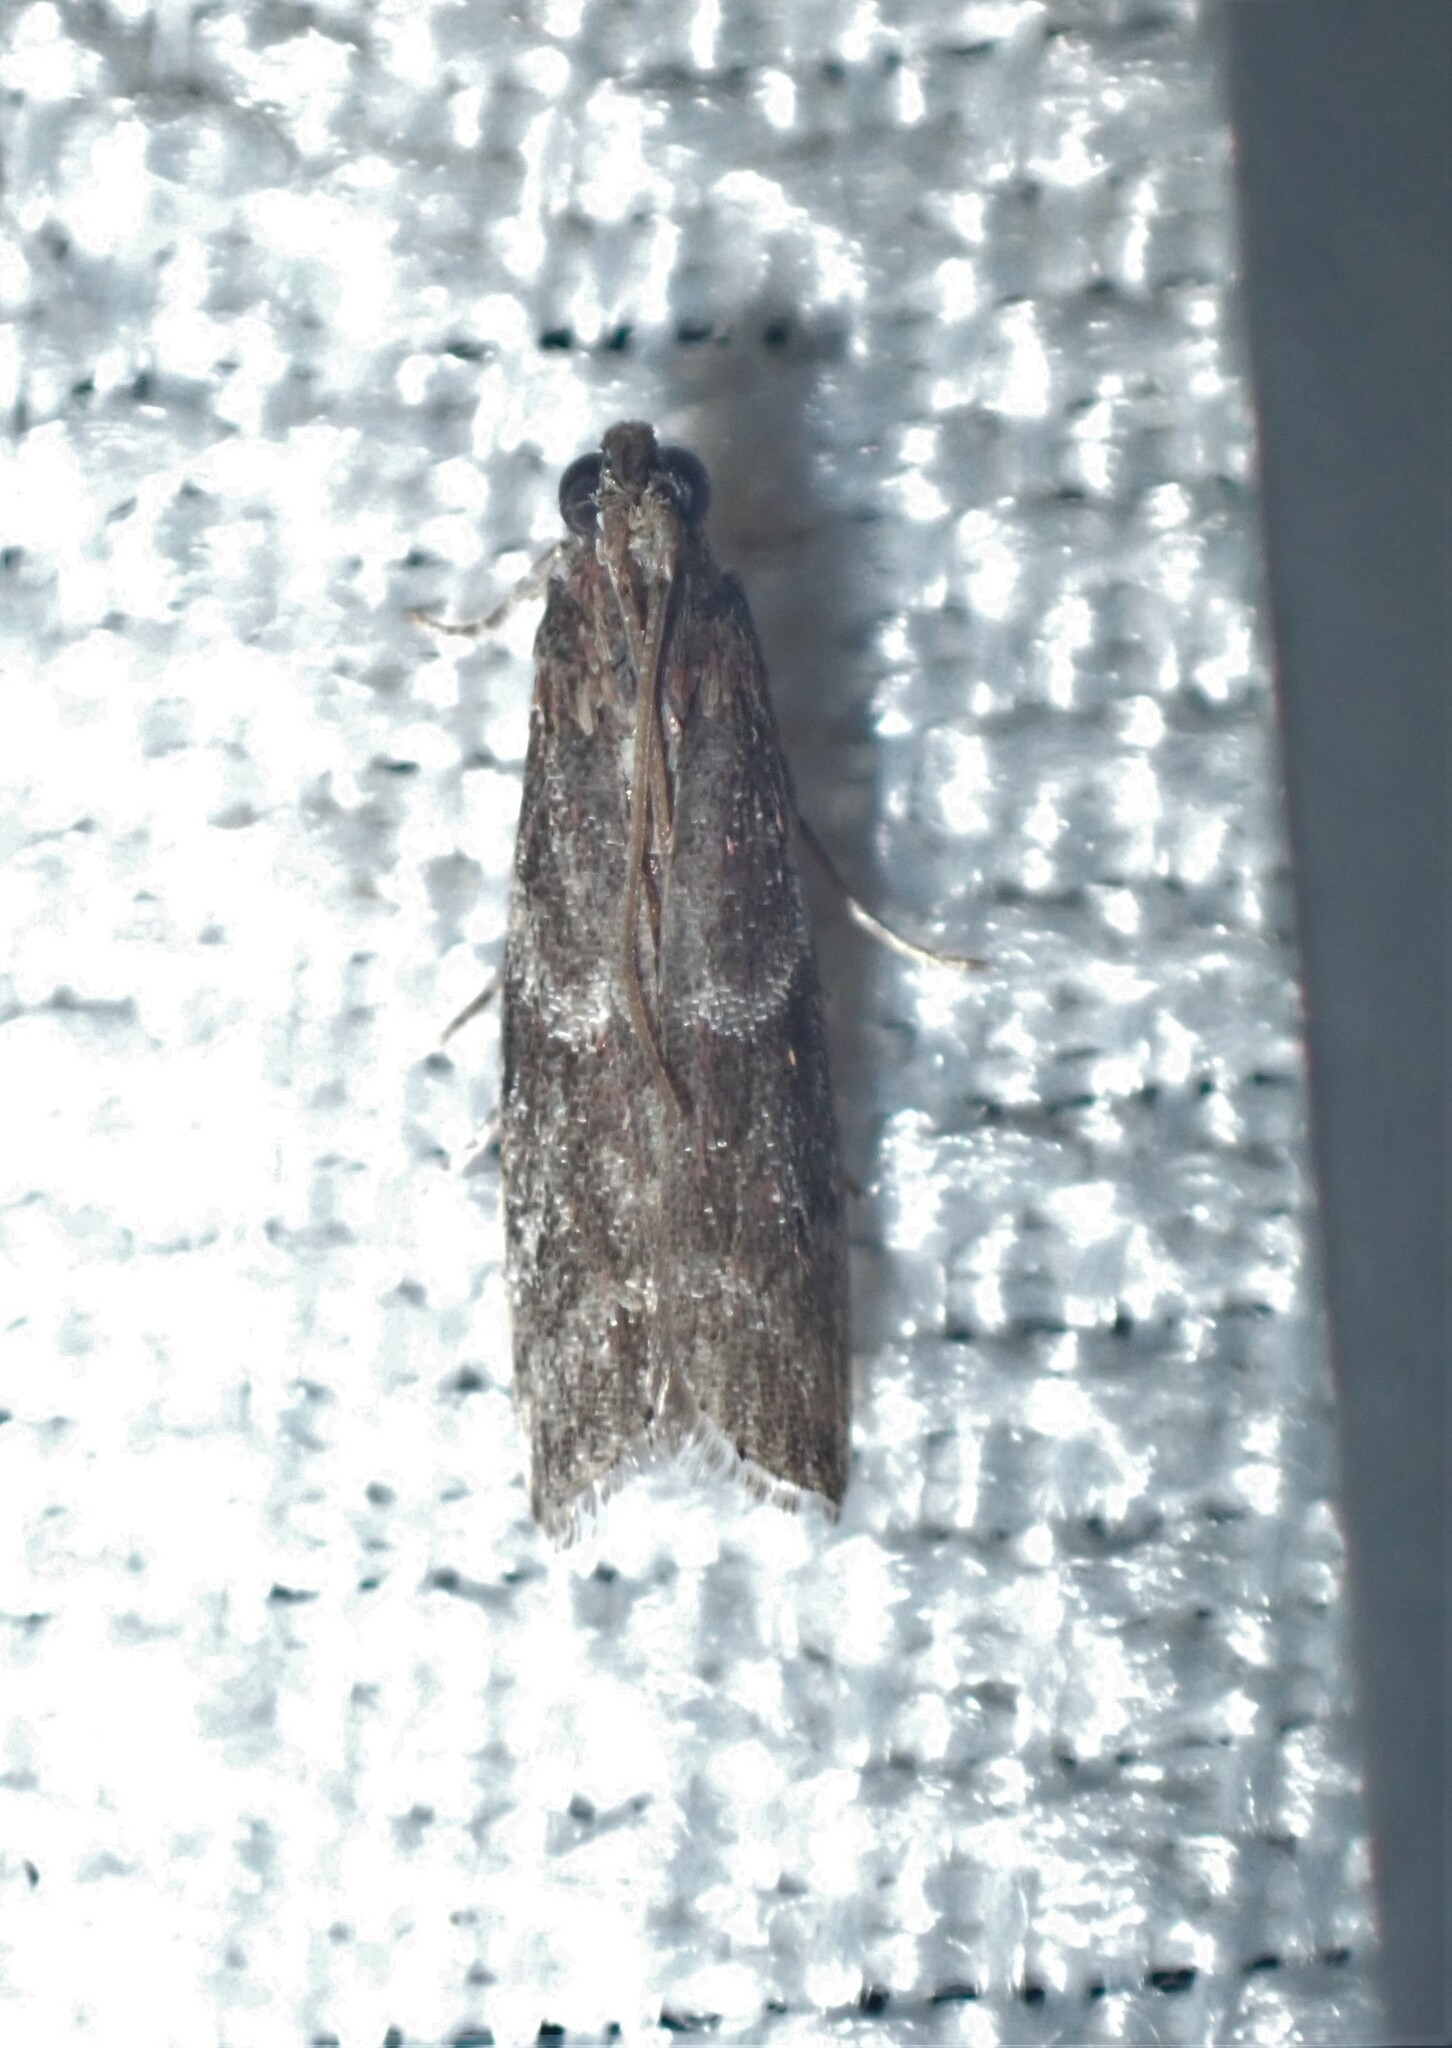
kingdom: Animalia
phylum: Arthropoda
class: Insecta
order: Lepidoptera
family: Pyralidae
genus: Cryptoblabes
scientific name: Cryptoblabes gnidiella
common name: Honeydew moth
